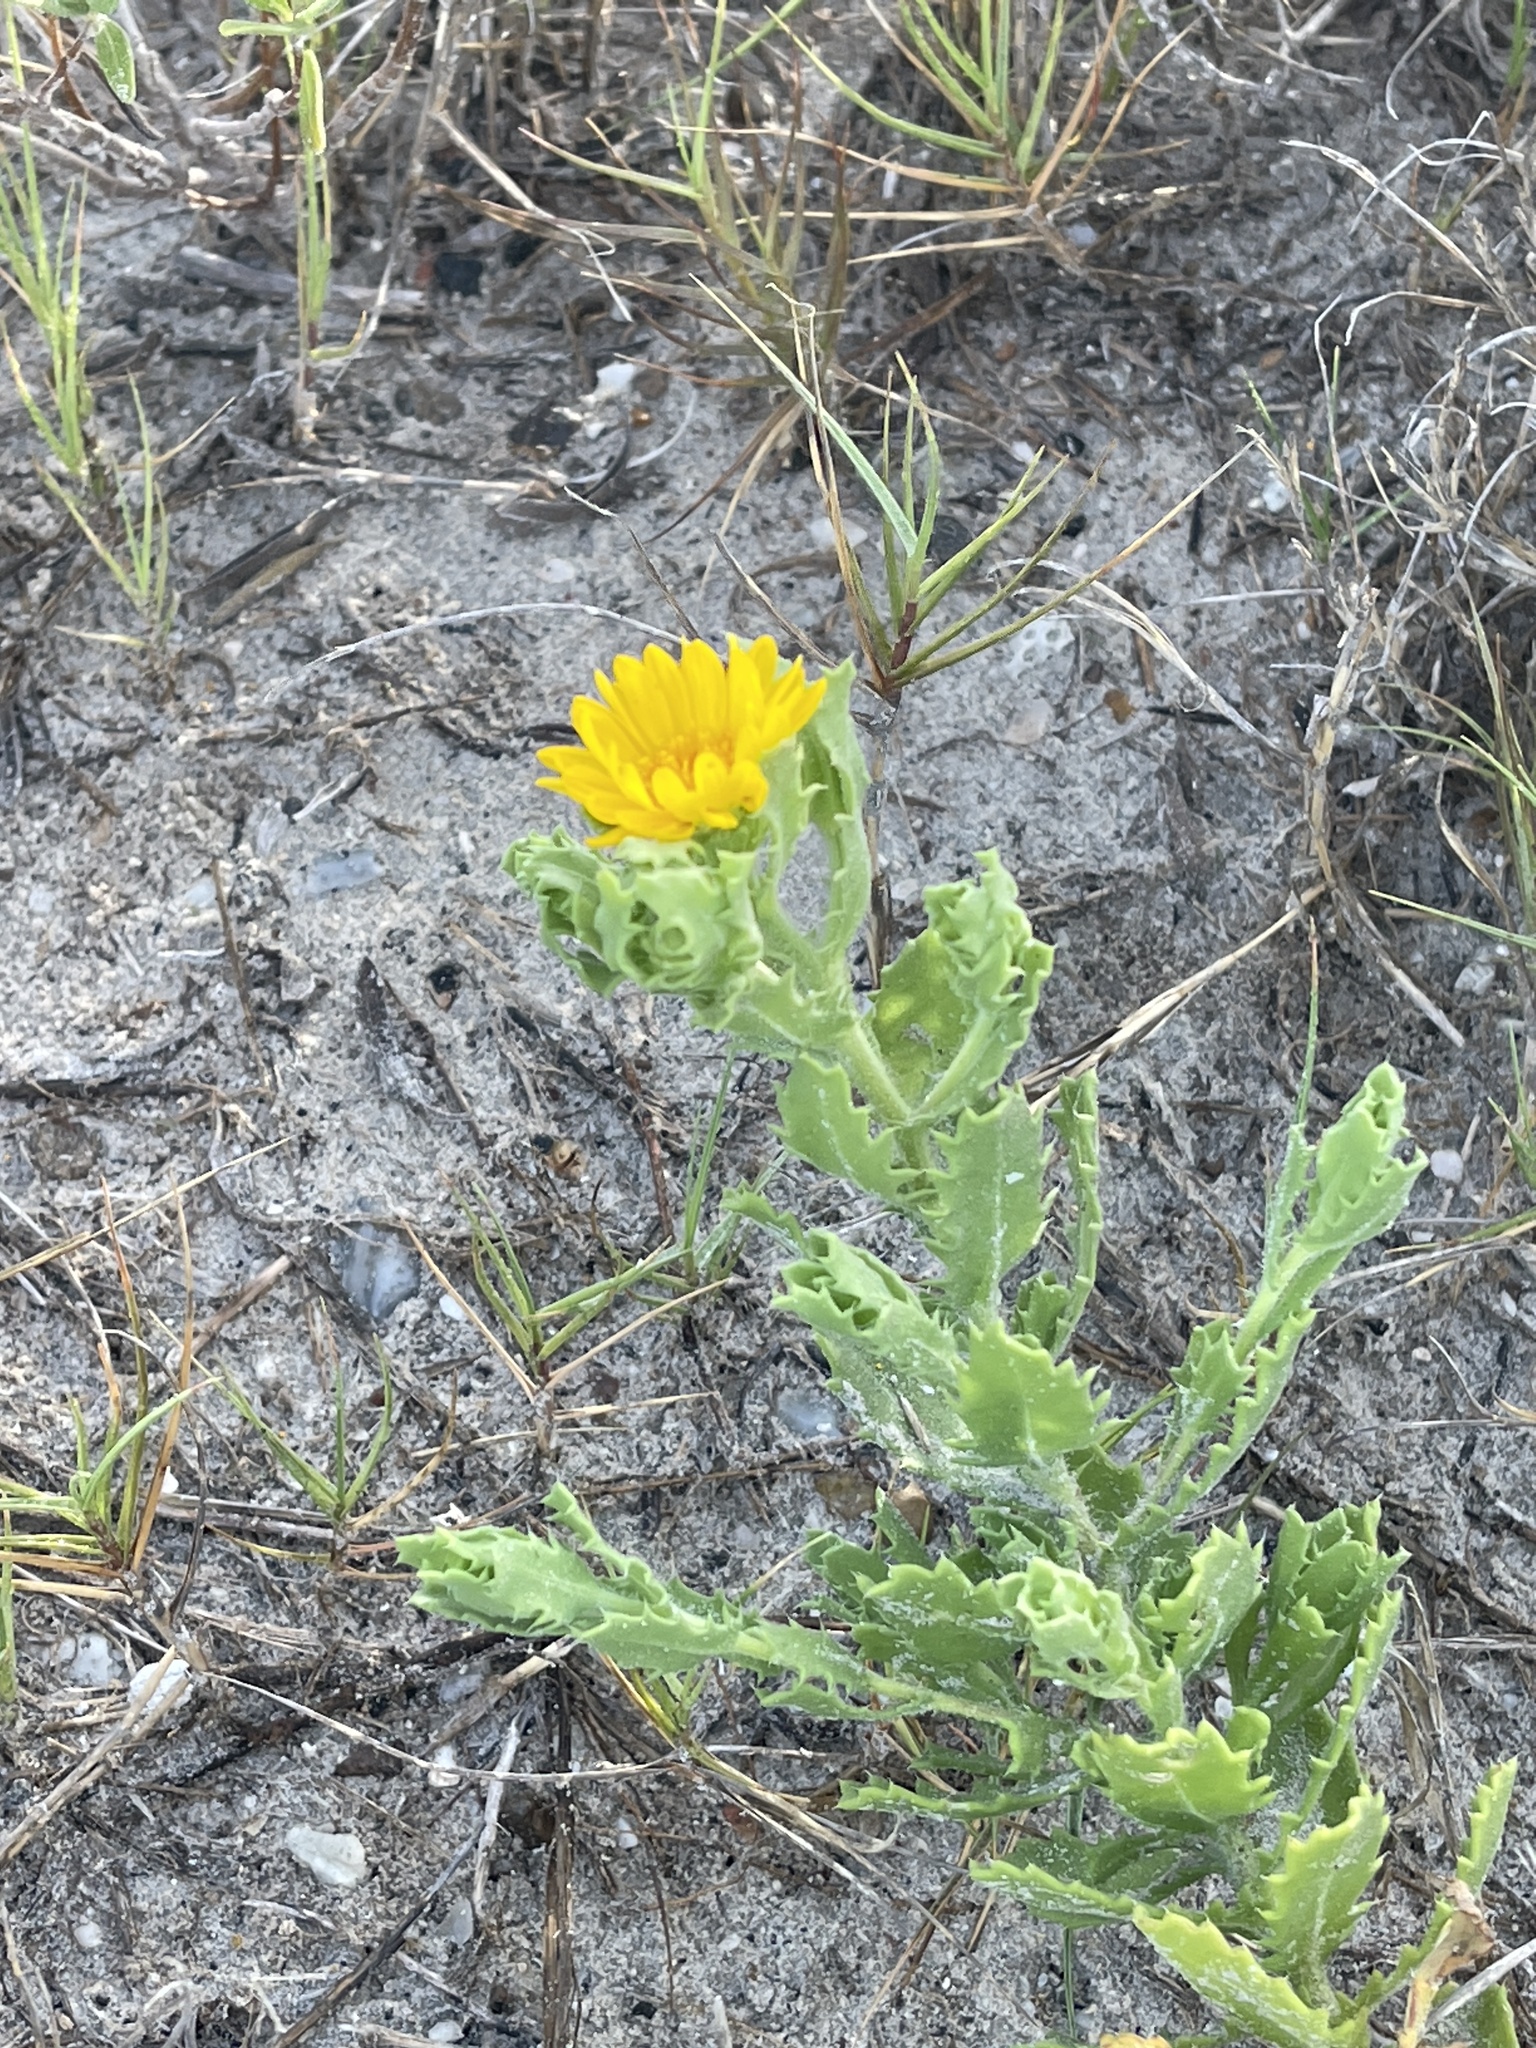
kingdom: Plantae
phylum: Tracheophyta
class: Magnoliopsida
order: Asterales
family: Asteraceae
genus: Rayjacksonia
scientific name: Rayjacksonia phyllocephala
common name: Gulf coast camphor daisy
